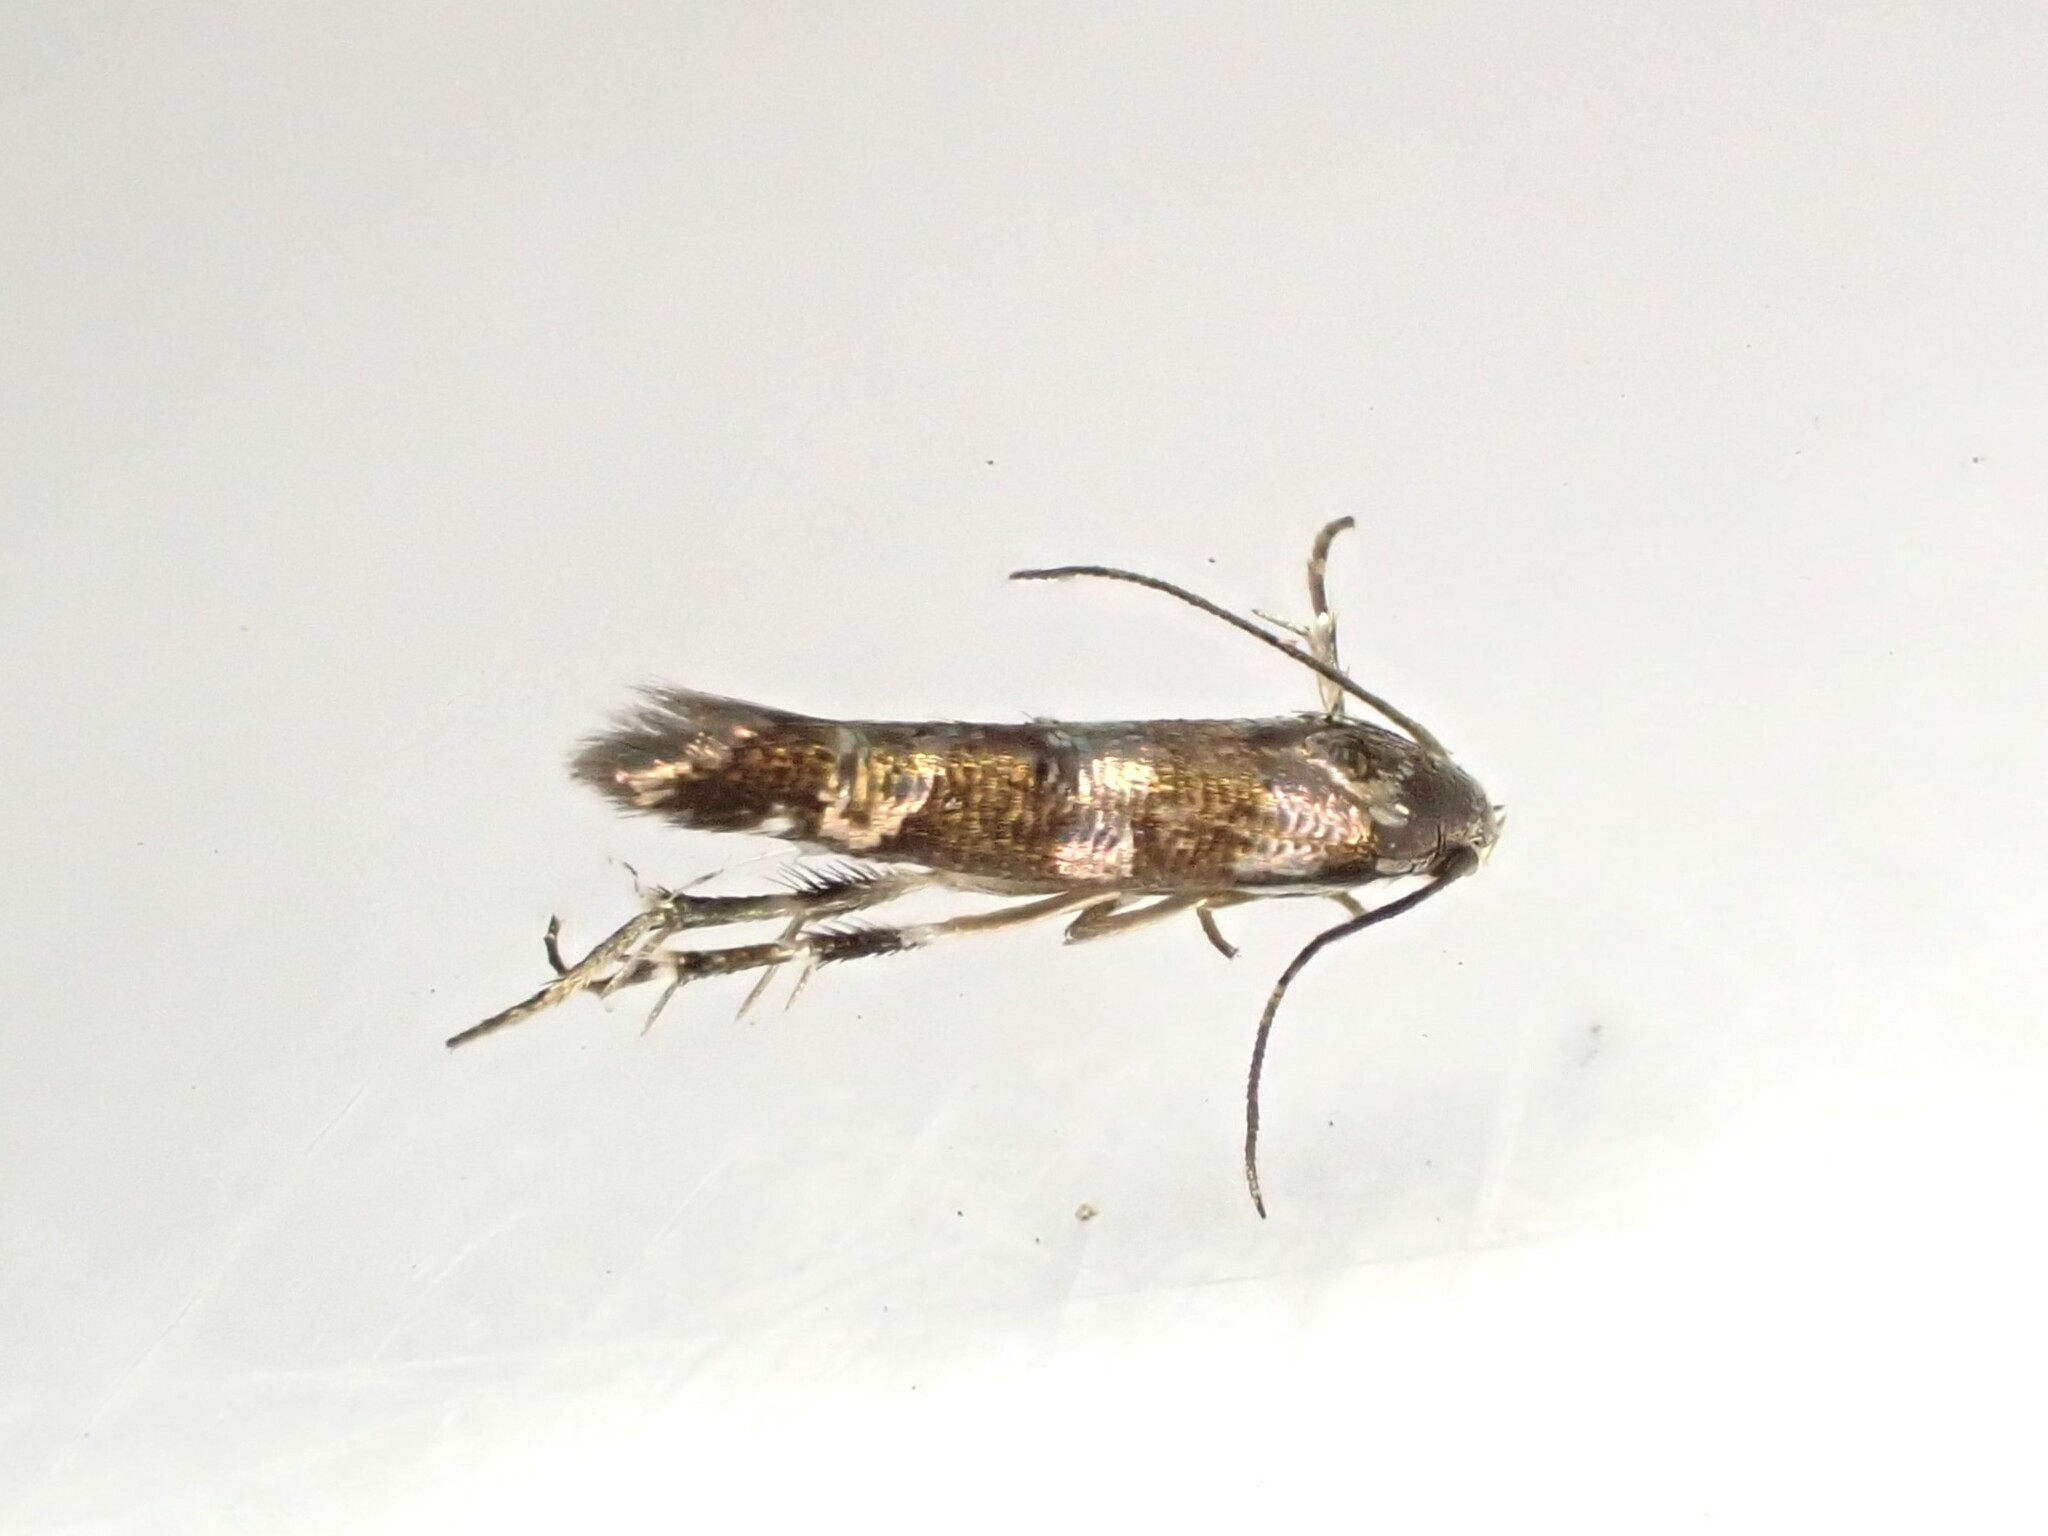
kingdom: Animalia
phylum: Arthropoda
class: Insecta
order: Lepidoptera
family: Momphidae
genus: Zapyrastra
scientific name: Zapyrastra calliphana
